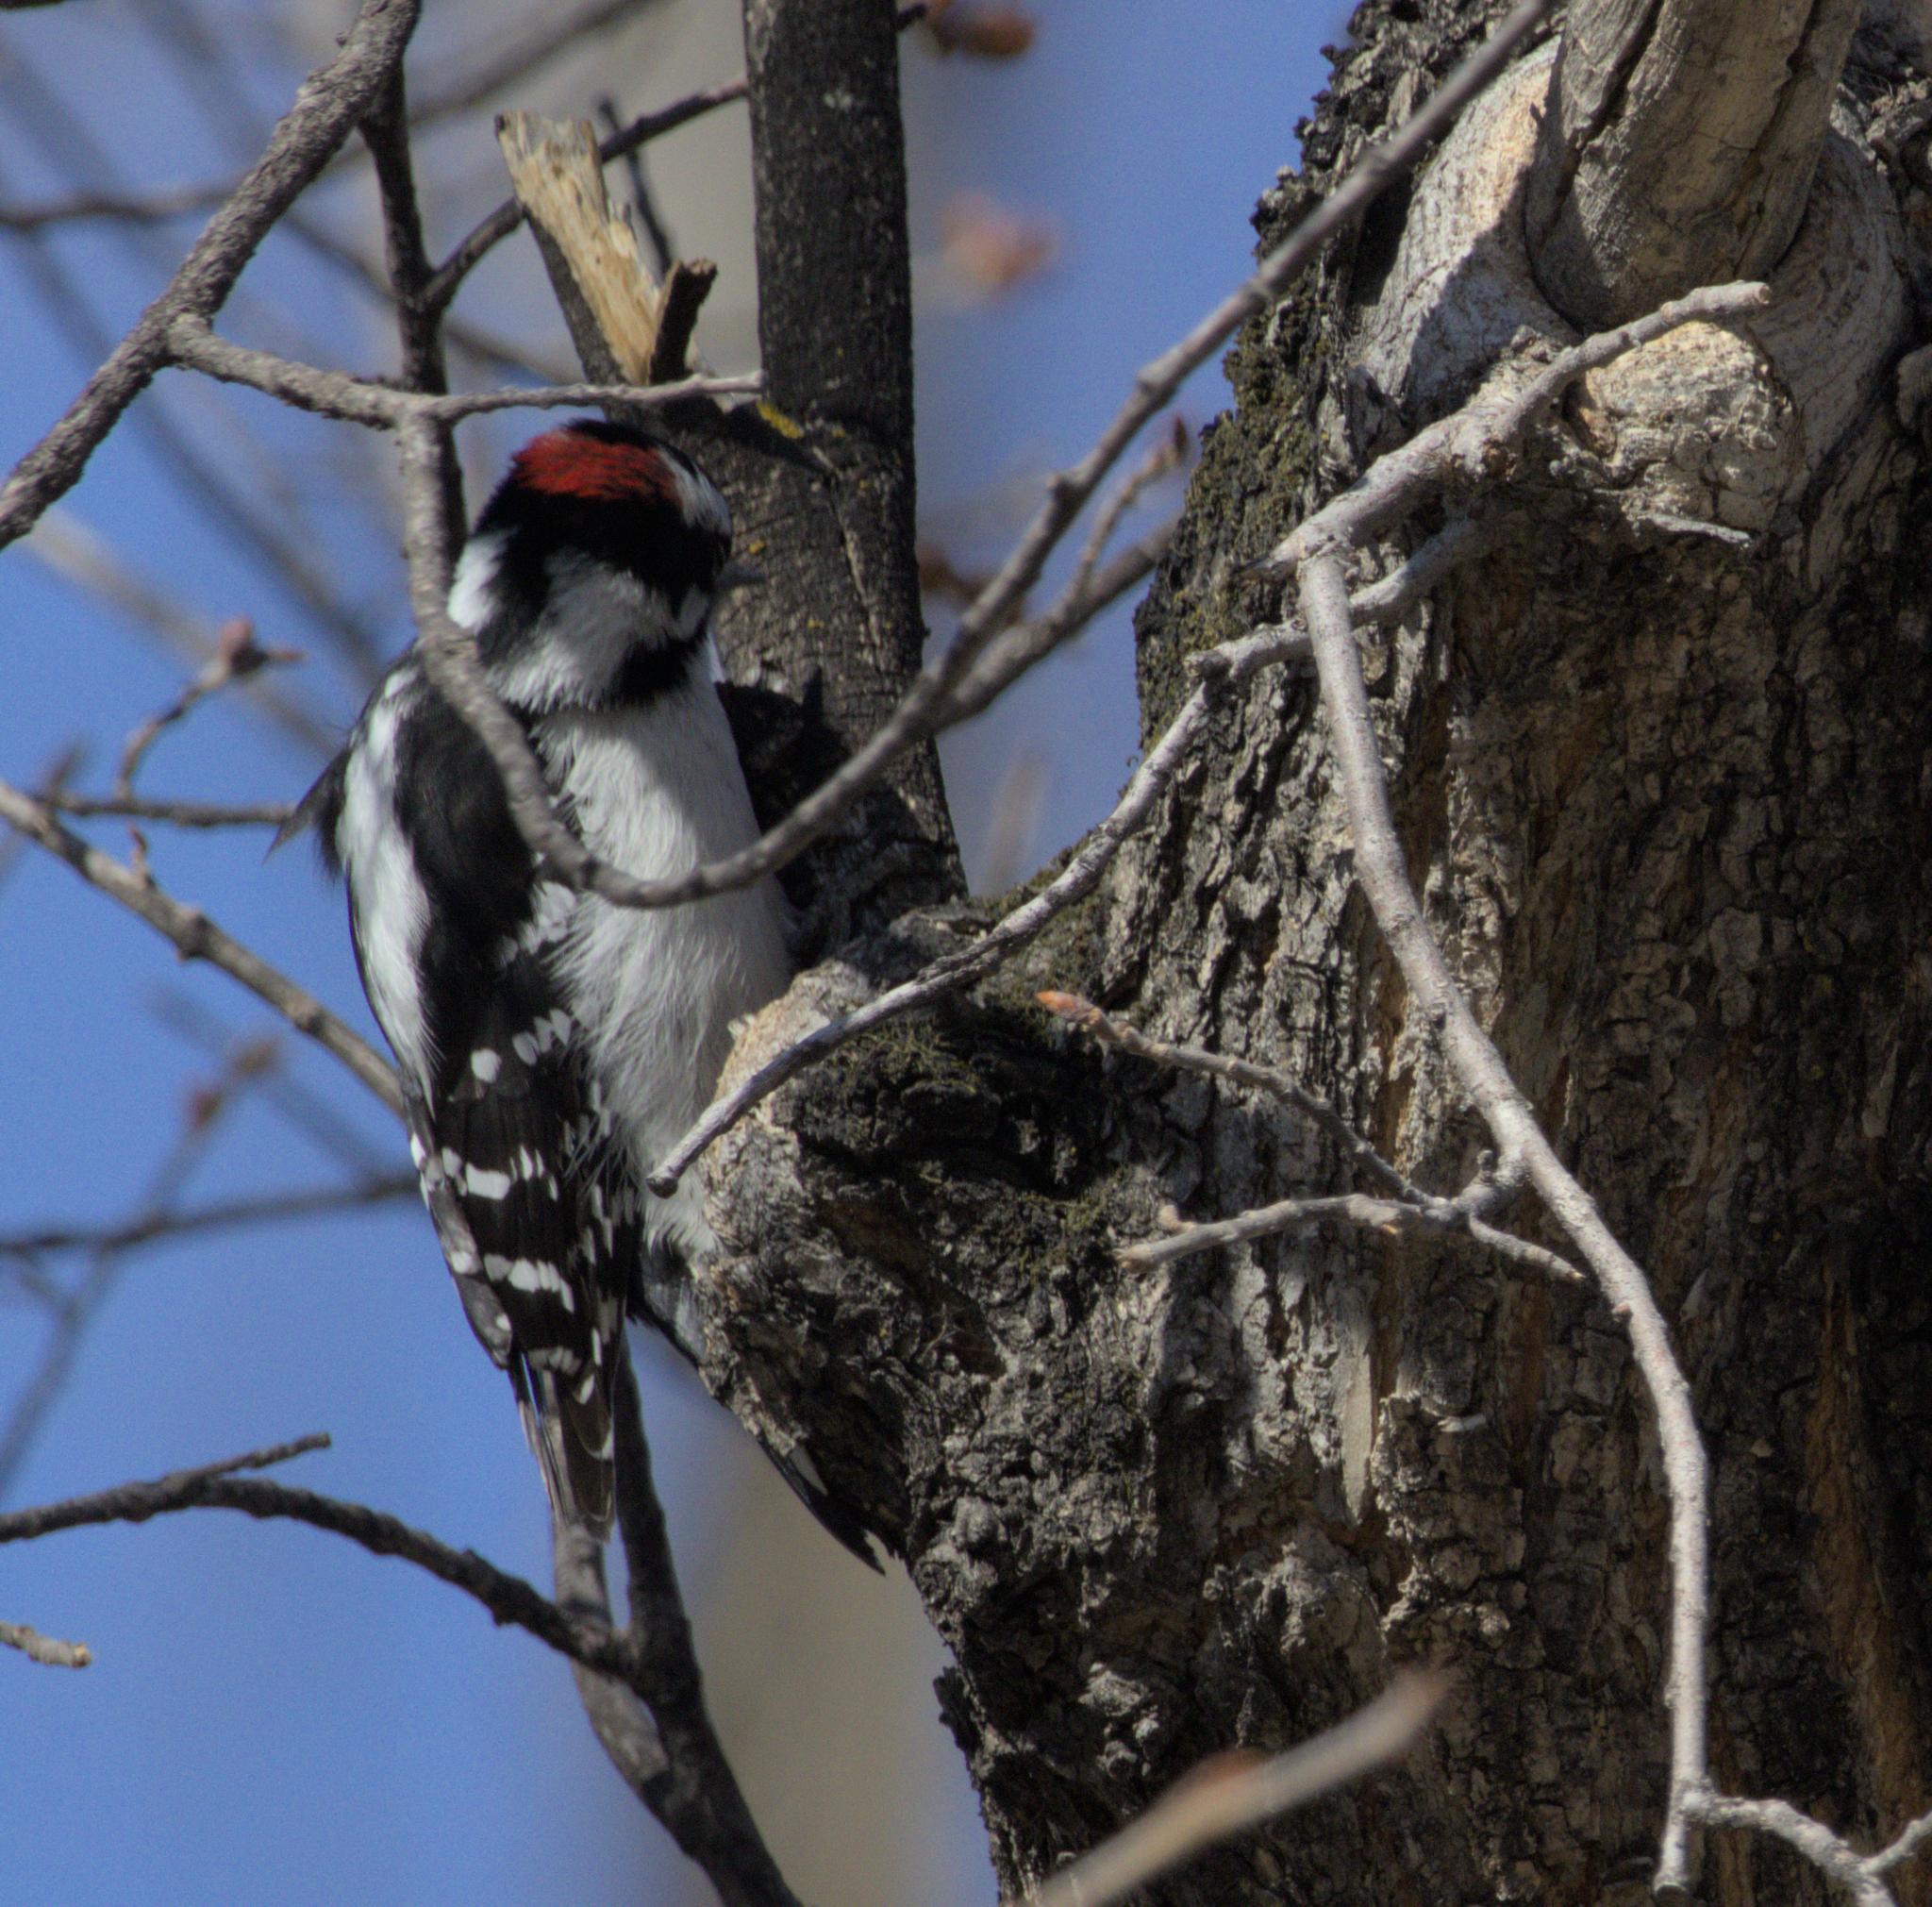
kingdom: Animalia
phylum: Chordata
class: Aves
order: Piciformes
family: Picidae
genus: Dryobates
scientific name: Dryobates pubescens
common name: Downy woodpecker
